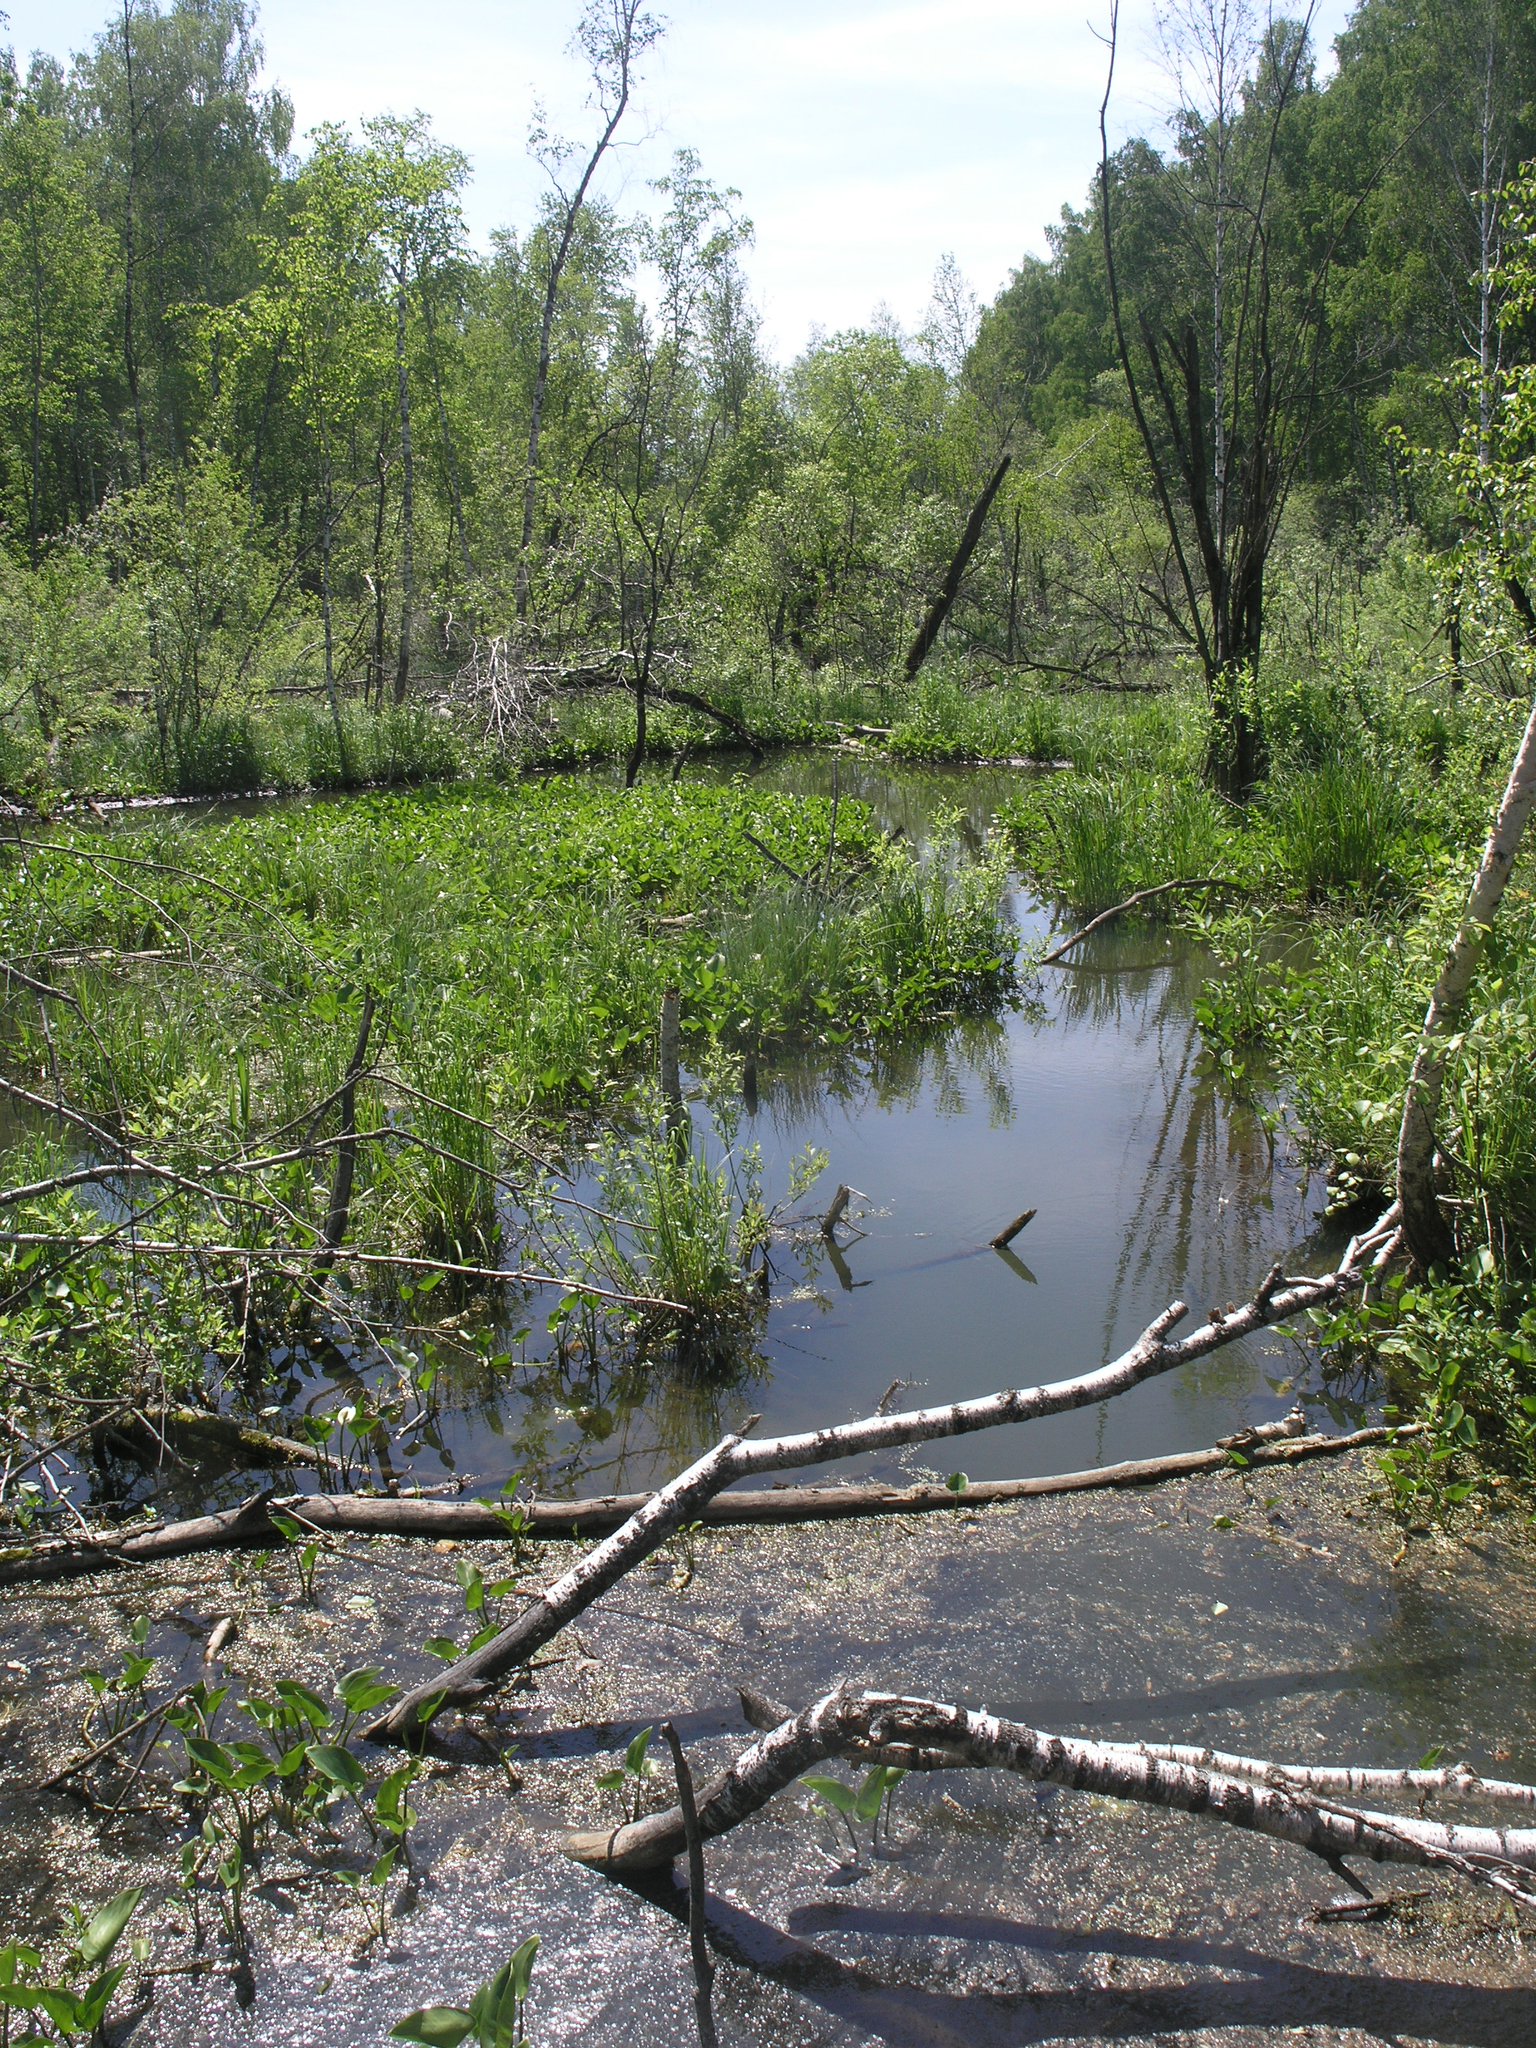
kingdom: Animalia
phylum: Chordata
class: Mammalia
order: Rodentia
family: Castoridae
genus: Castor
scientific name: Castor fiber
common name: Eurasian beaver
